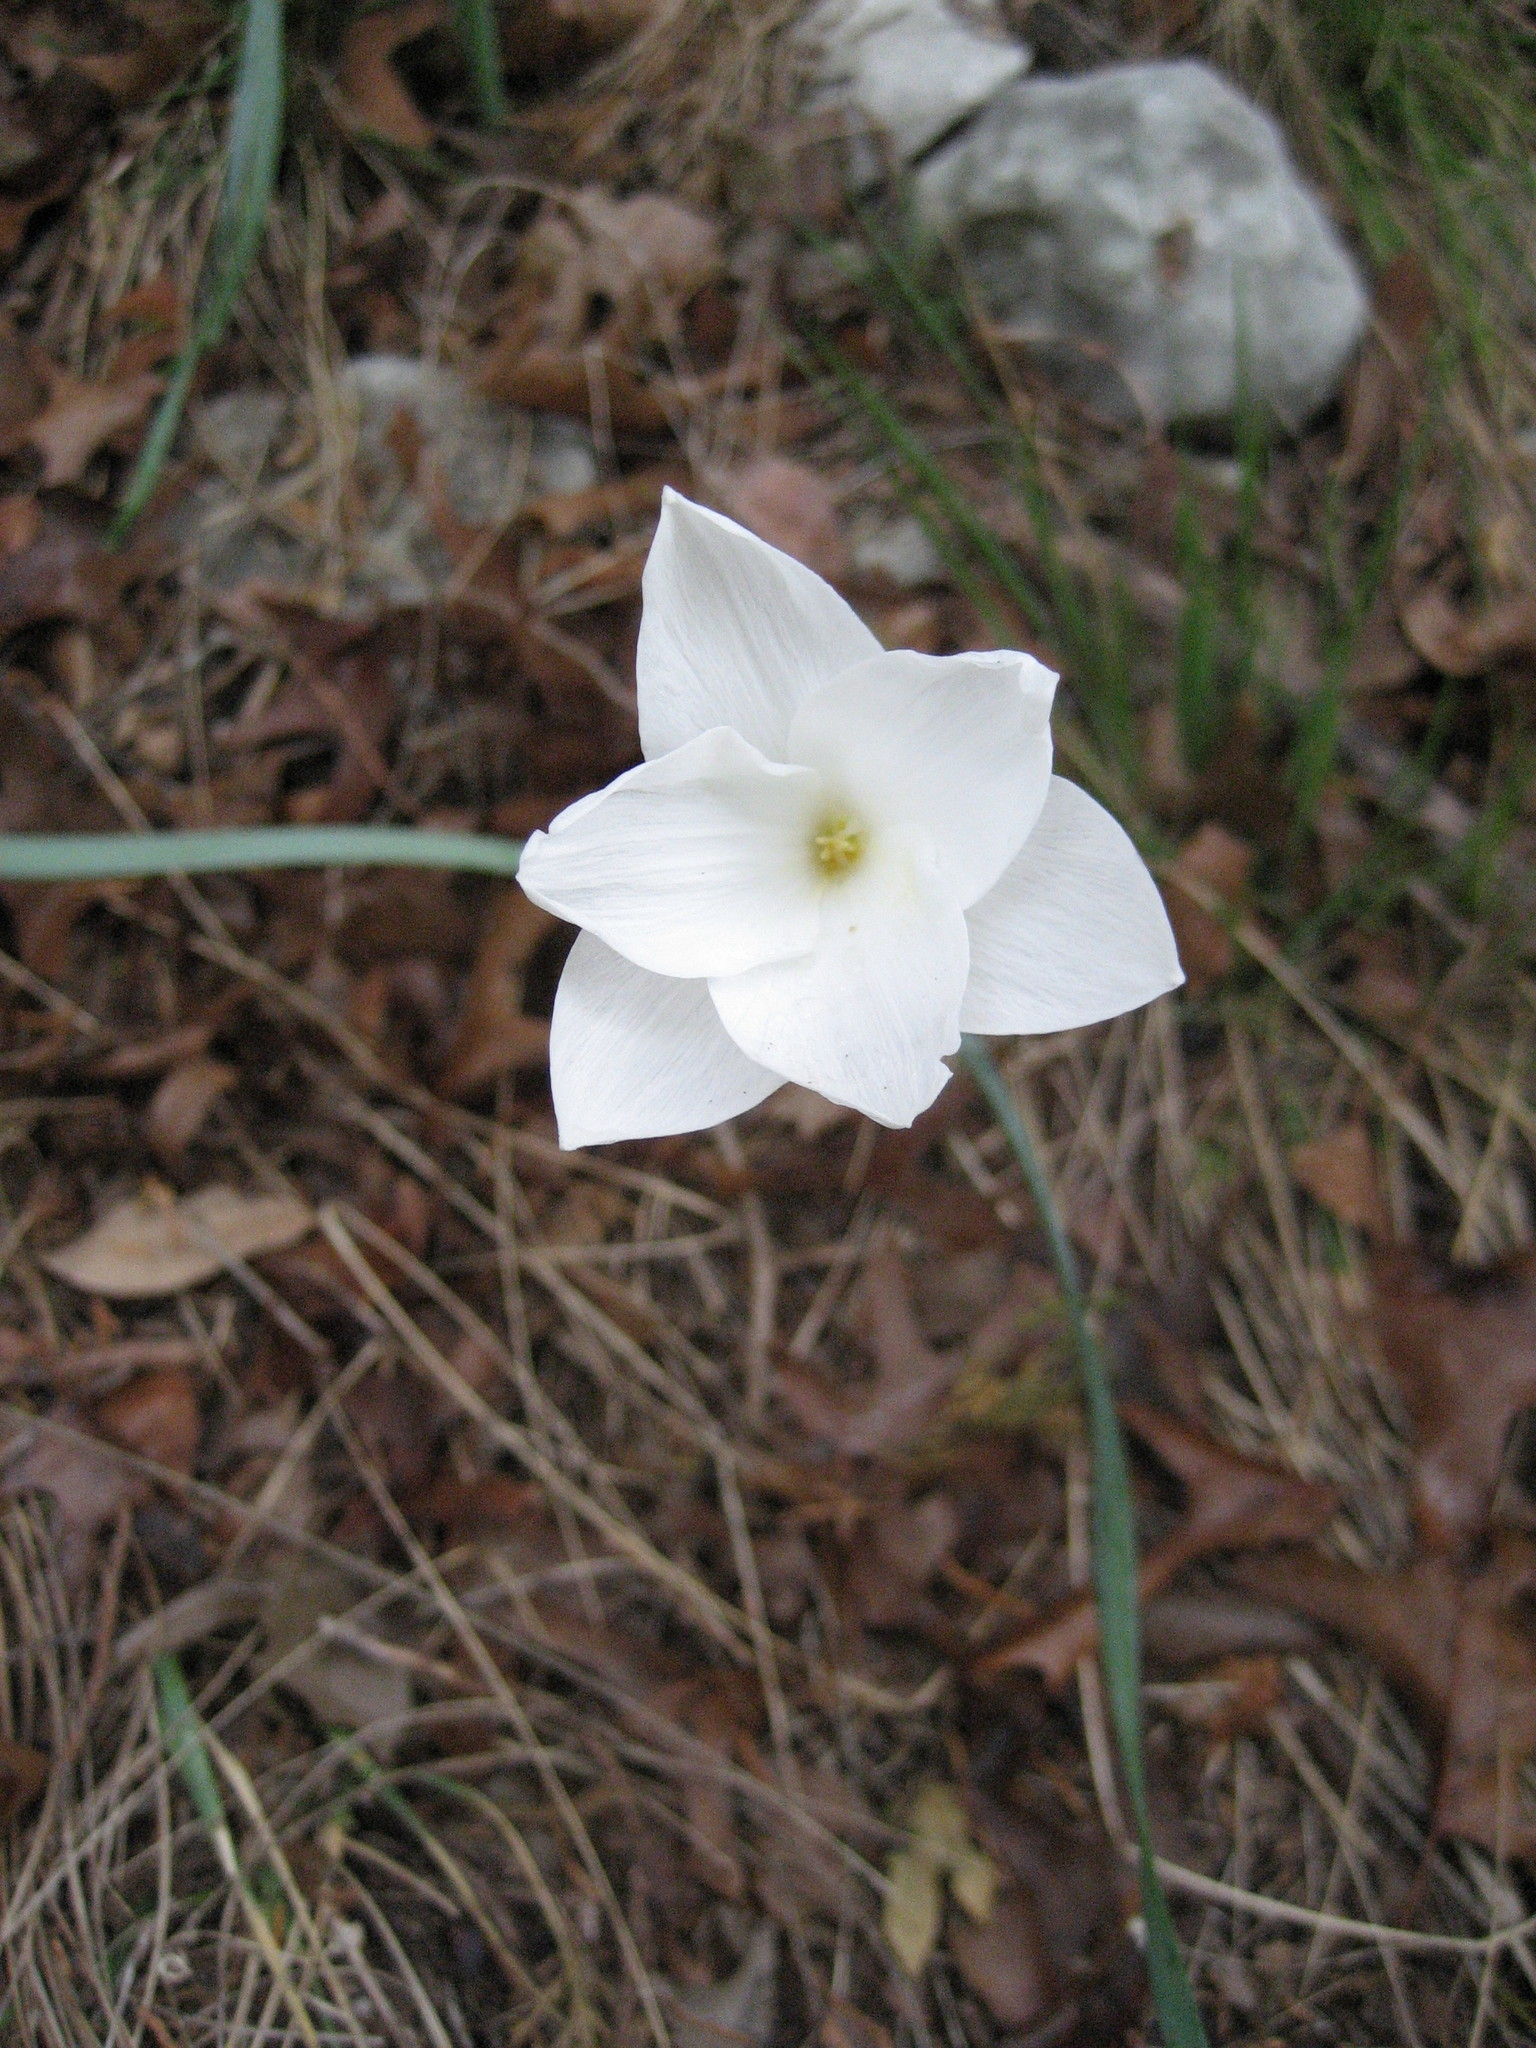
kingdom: Plantae
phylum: Tracheophyta
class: Liliopsida
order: Asparagales
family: Amaryllidaceae
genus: Zephyranthes
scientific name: Zephyranthes drummondii
